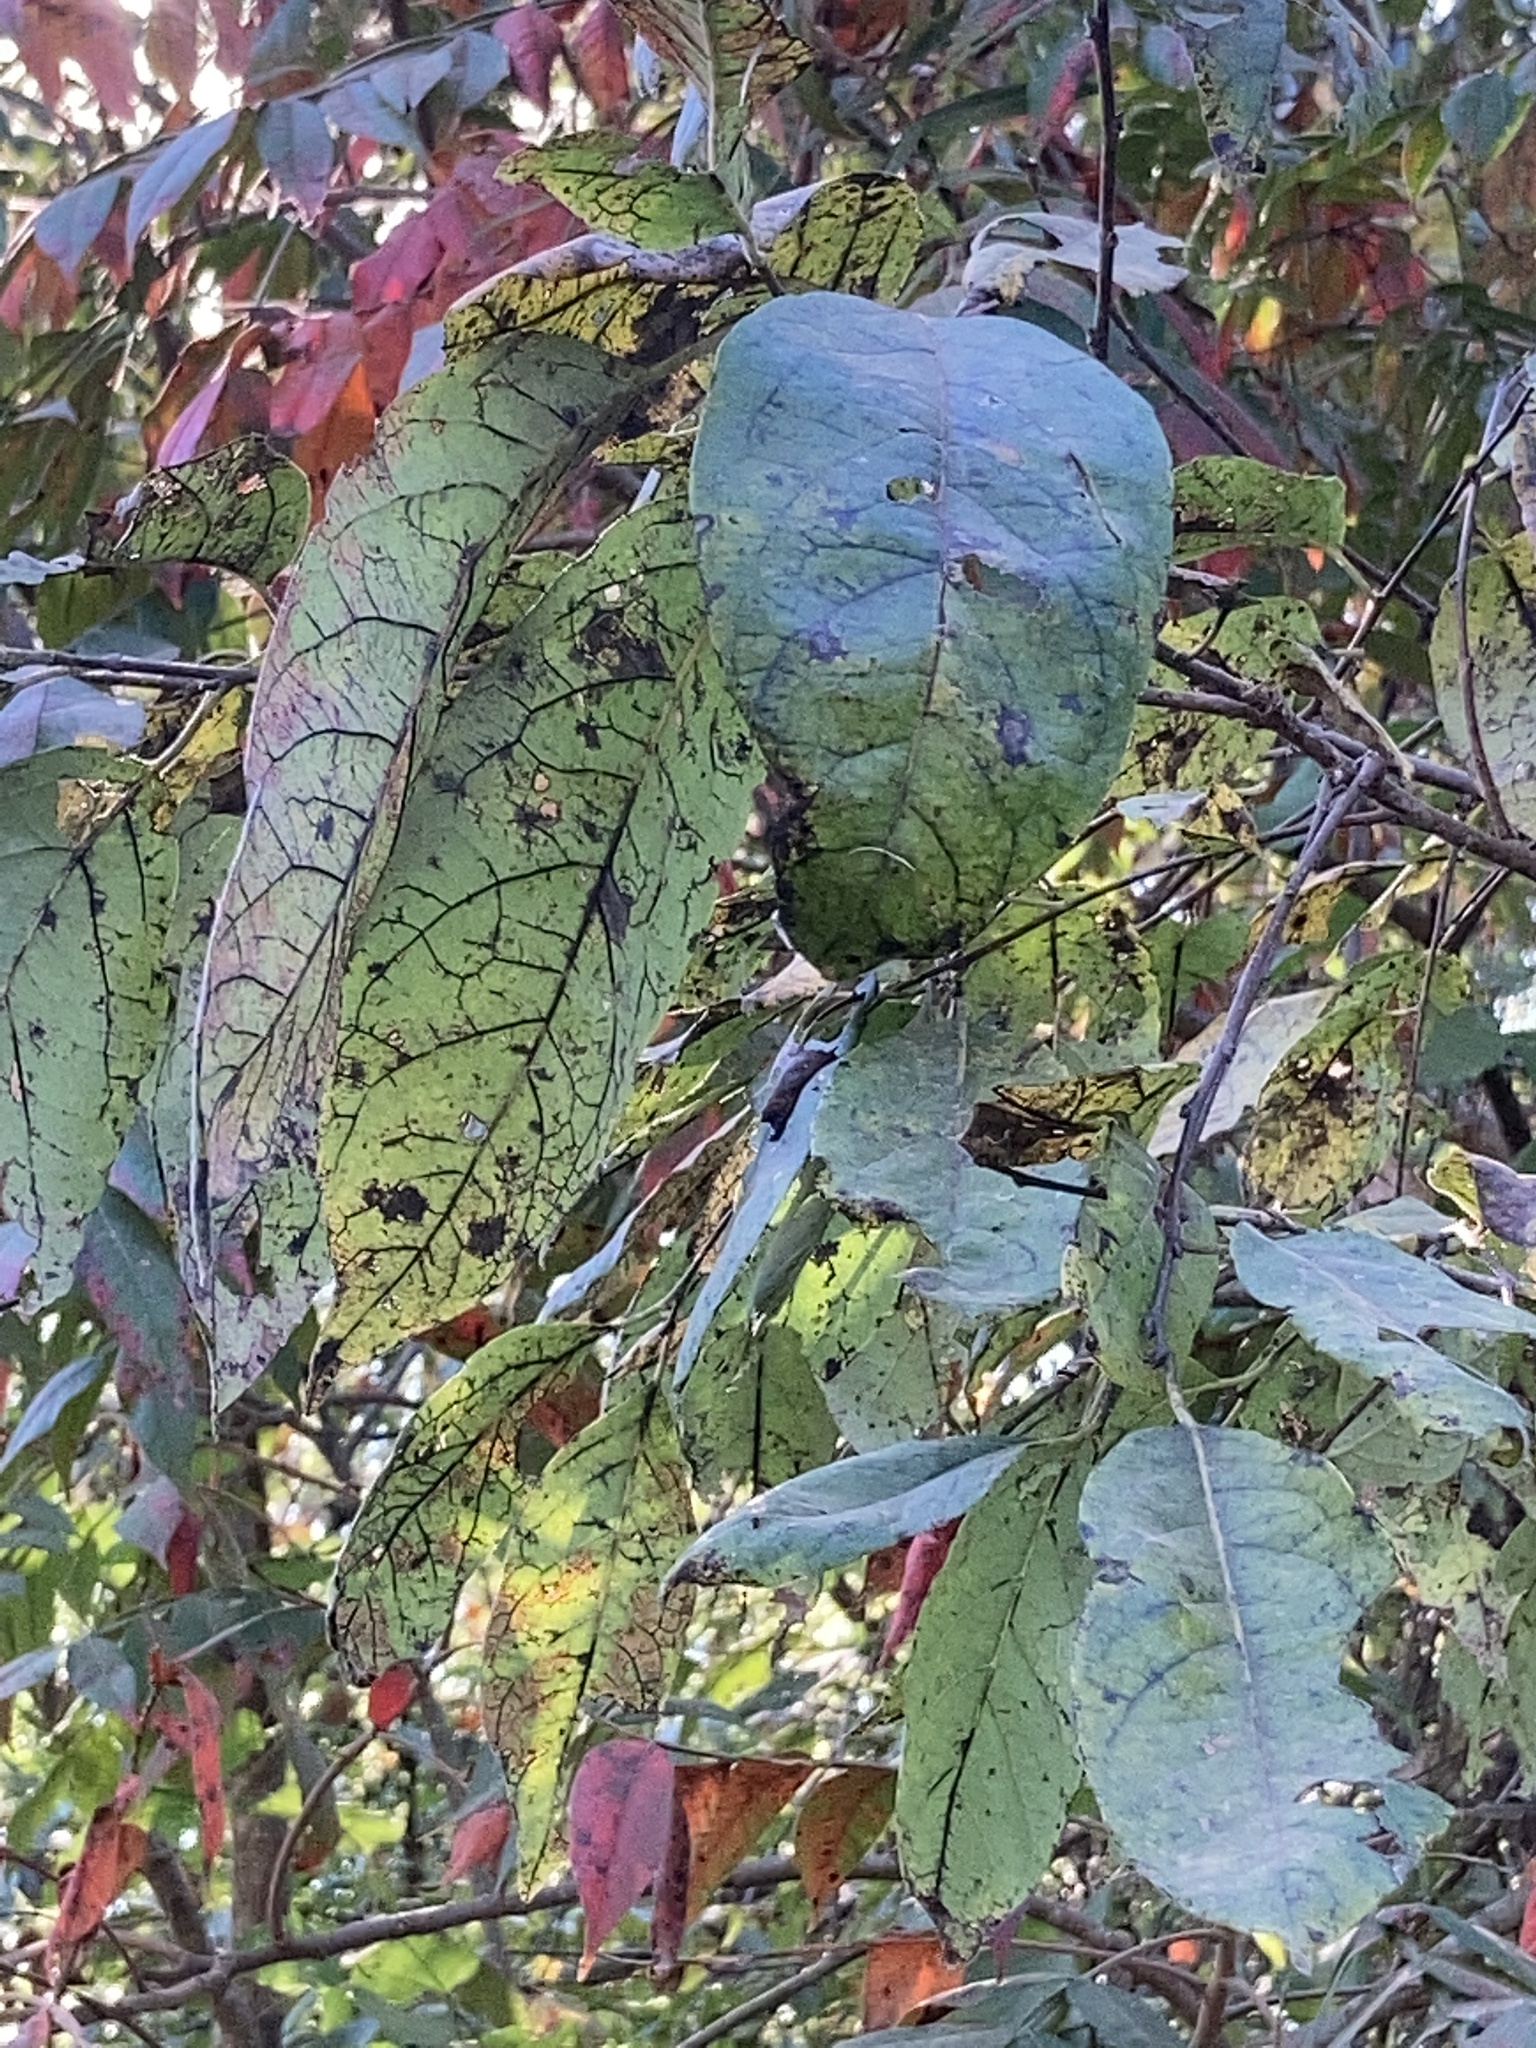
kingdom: Plantae
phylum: Tracheophyta
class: Magnoliopsida
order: Ericales
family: Ebenaceae
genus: Diospyros
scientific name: Diospyros virginiana
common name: Persimmon
